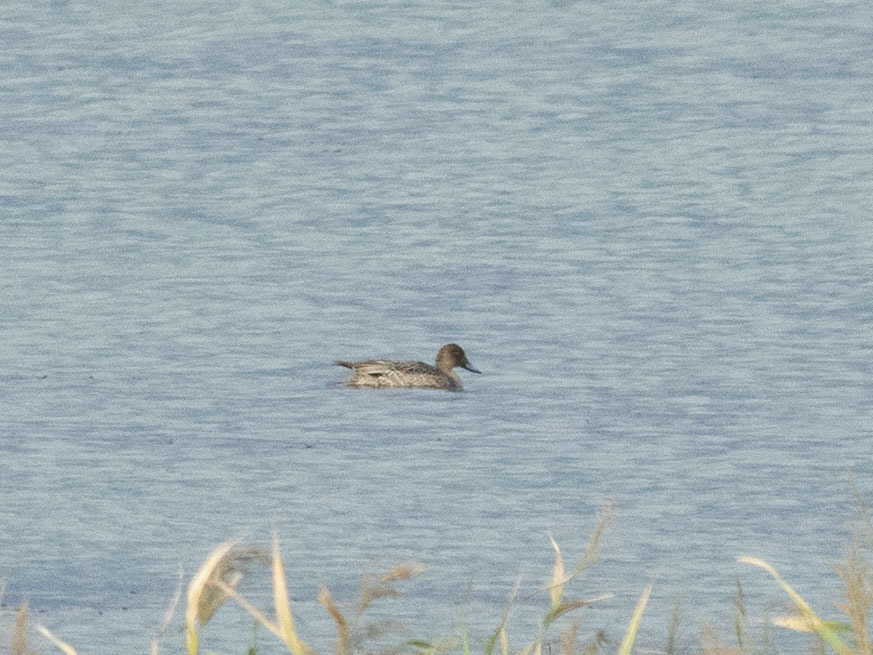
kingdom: Animalia
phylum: Chordata
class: Aves
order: Anseriformes
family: Anatidae
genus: Anas
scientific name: Anas acuta
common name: Northern pintail
